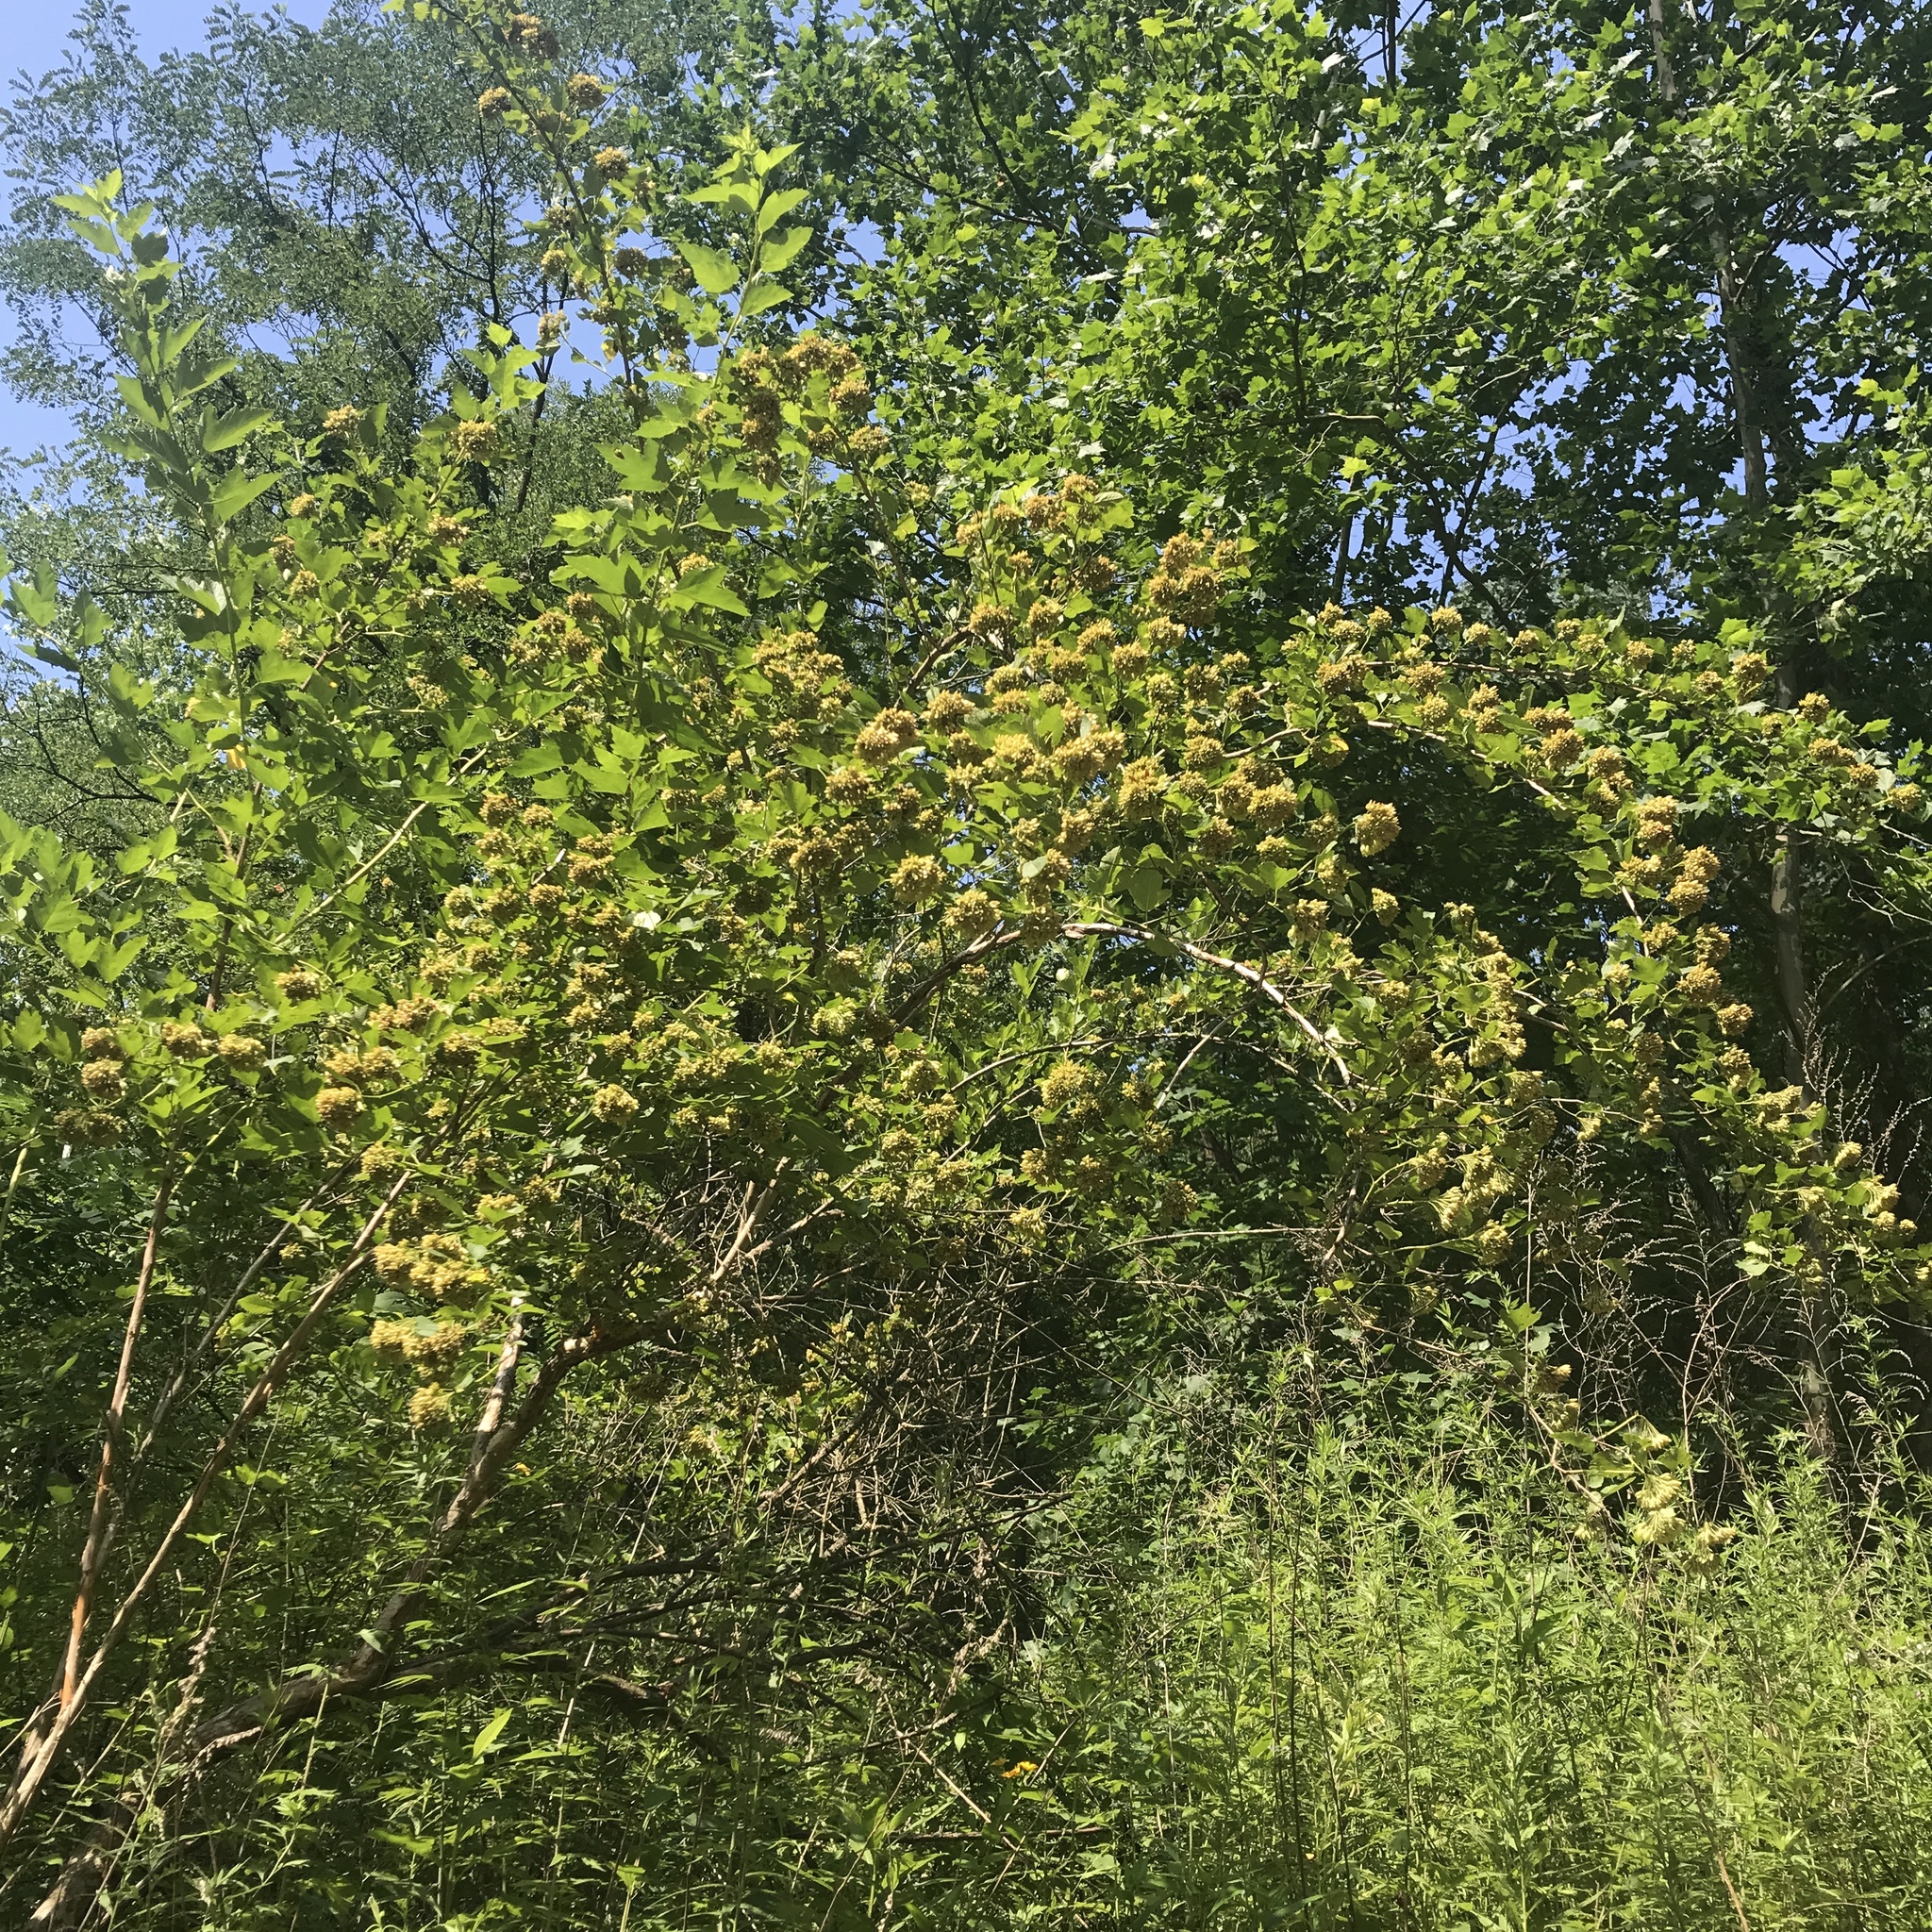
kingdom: Plantae
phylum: Tracheophyta
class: Magnoliopsida
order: Rosales
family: Rosaceae
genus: Physocarpus
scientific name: Physocarpus opulifolius
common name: Ninebark
